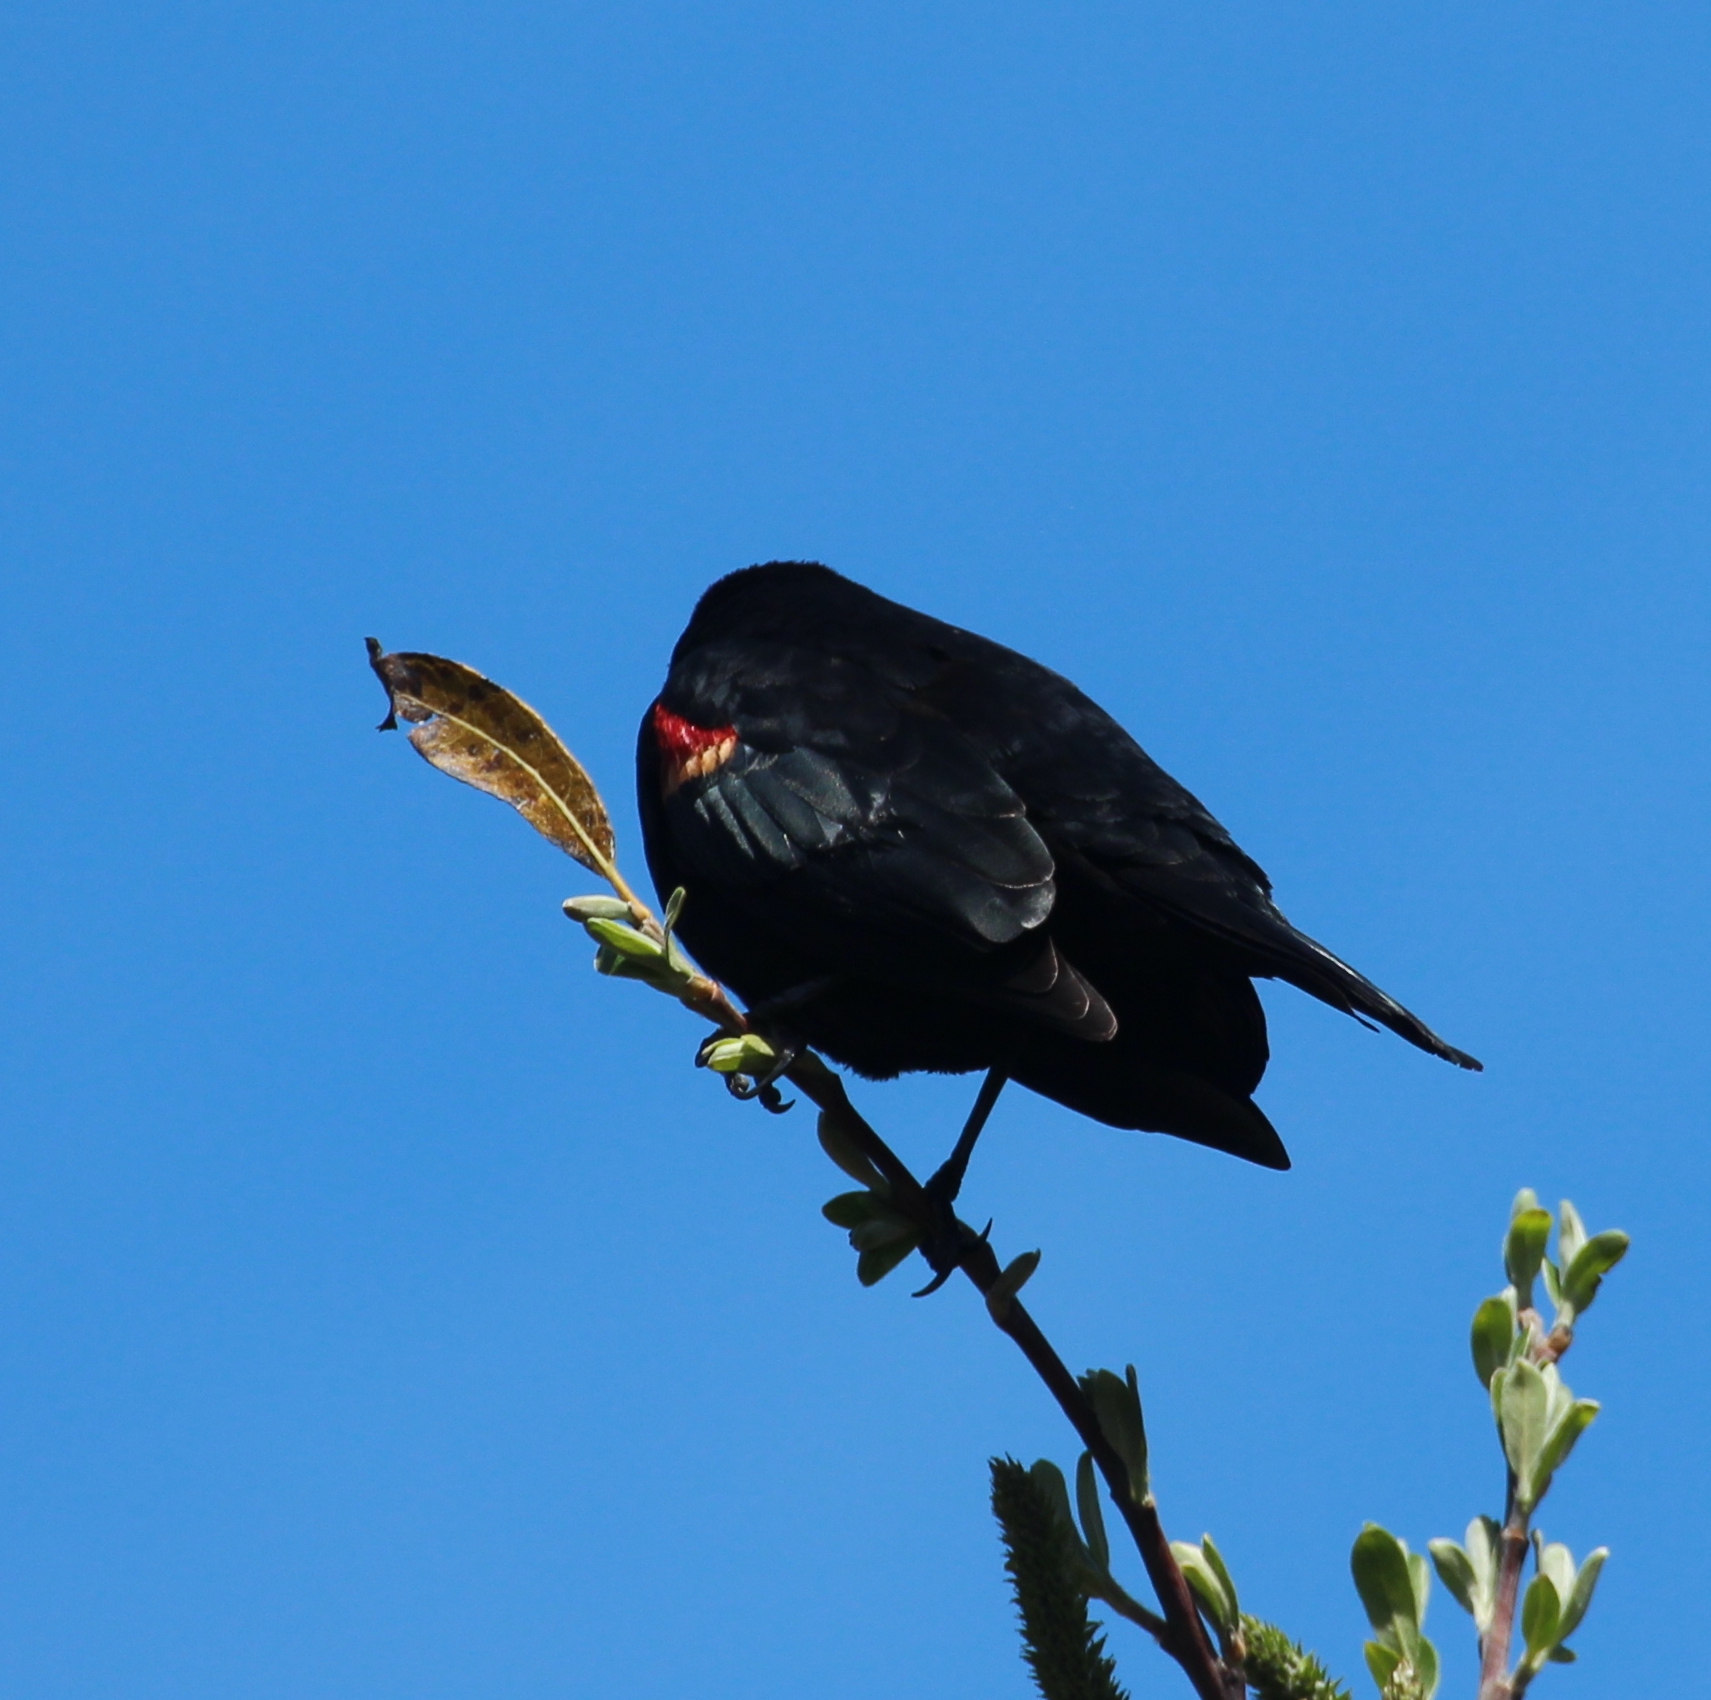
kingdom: Animalia
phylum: Chordata
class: Aves
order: Passeriformes
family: Icteridae
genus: Agelaius
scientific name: Agelaius phoeniceus
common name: Red-winged blackbird
